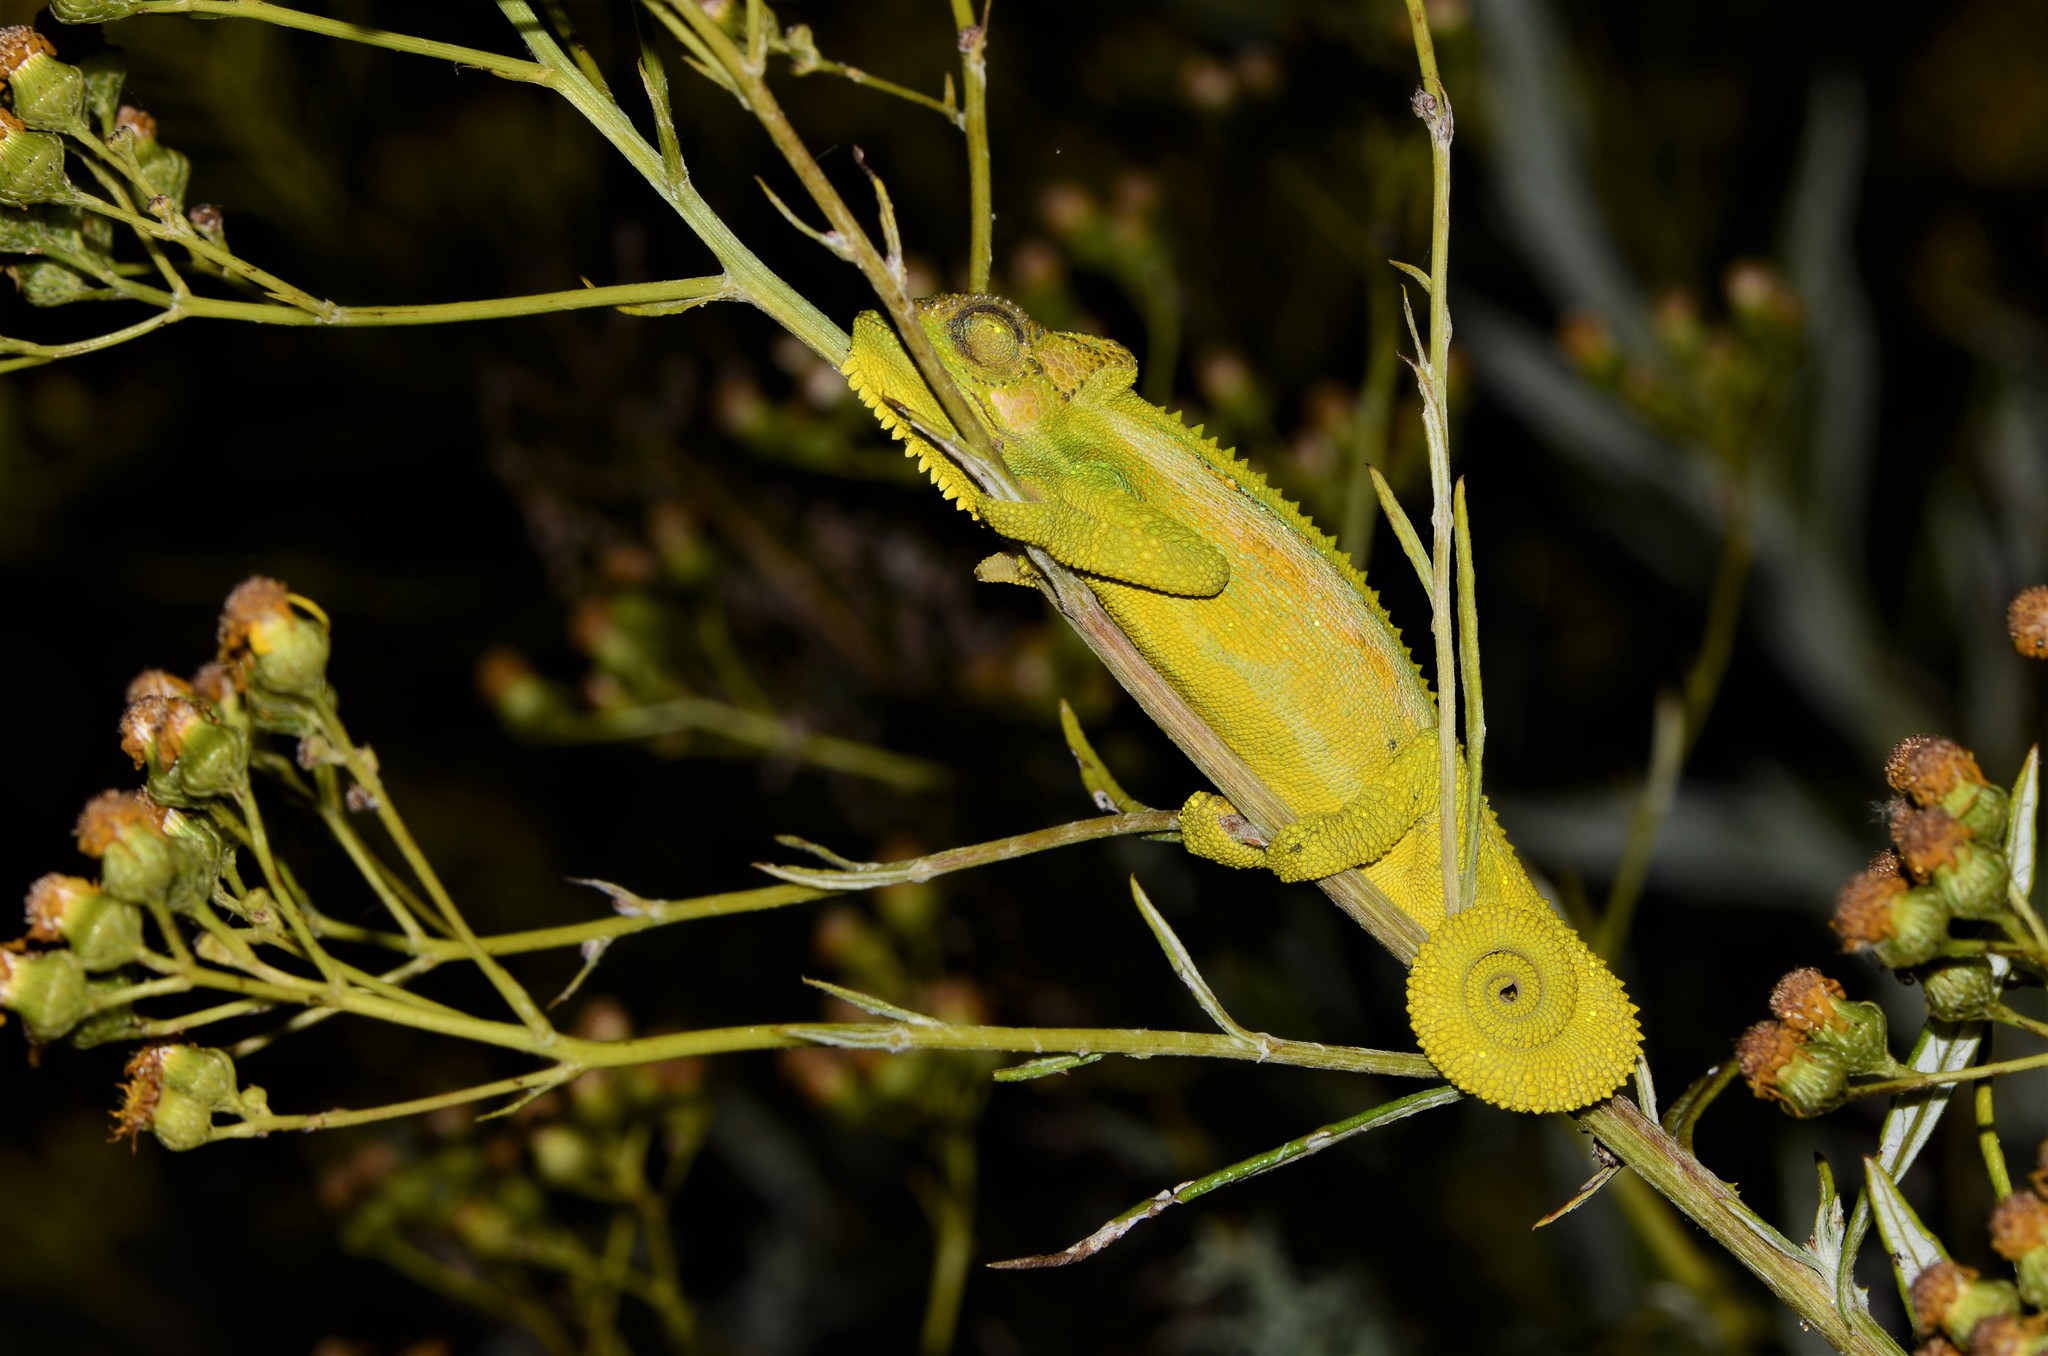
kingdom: Animalia
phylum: Chordata
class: Squamata
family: Chamaeleonidae
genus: Bradypodion
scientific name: Bradypodion pumilum
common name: Cape dwarf chameleon
